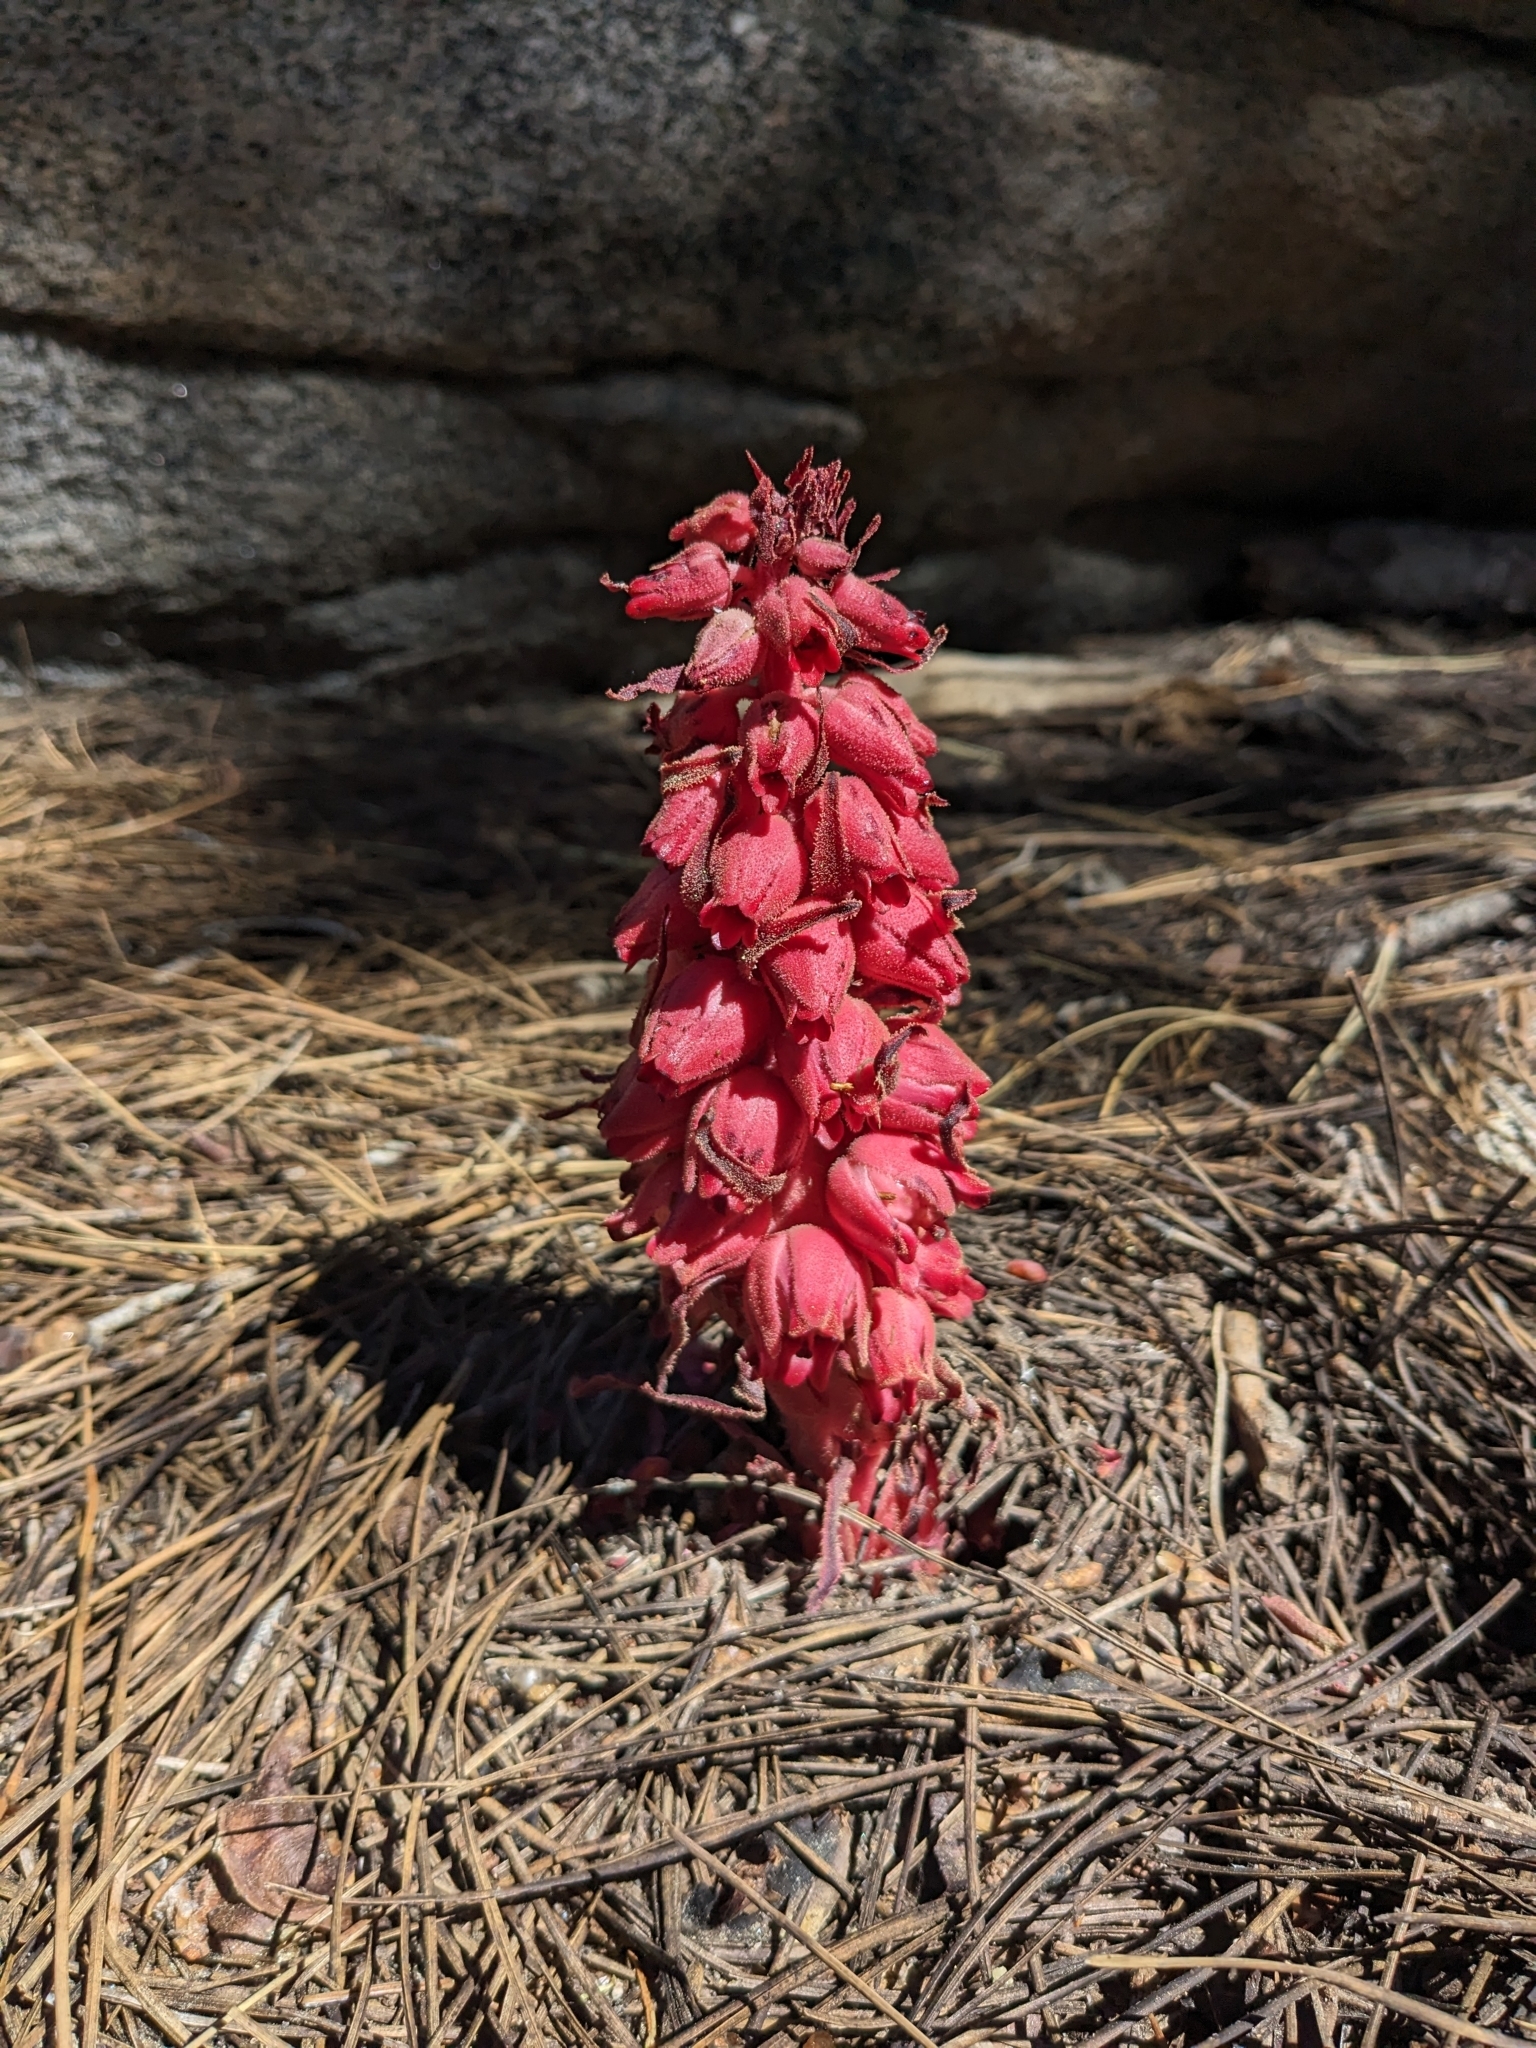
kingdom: Plantae
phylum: Tracheophyta
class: Magnoliopsida
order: Ericales
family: Ericaceae
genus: Sarcodes
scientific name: Sarcodes sanguinea
